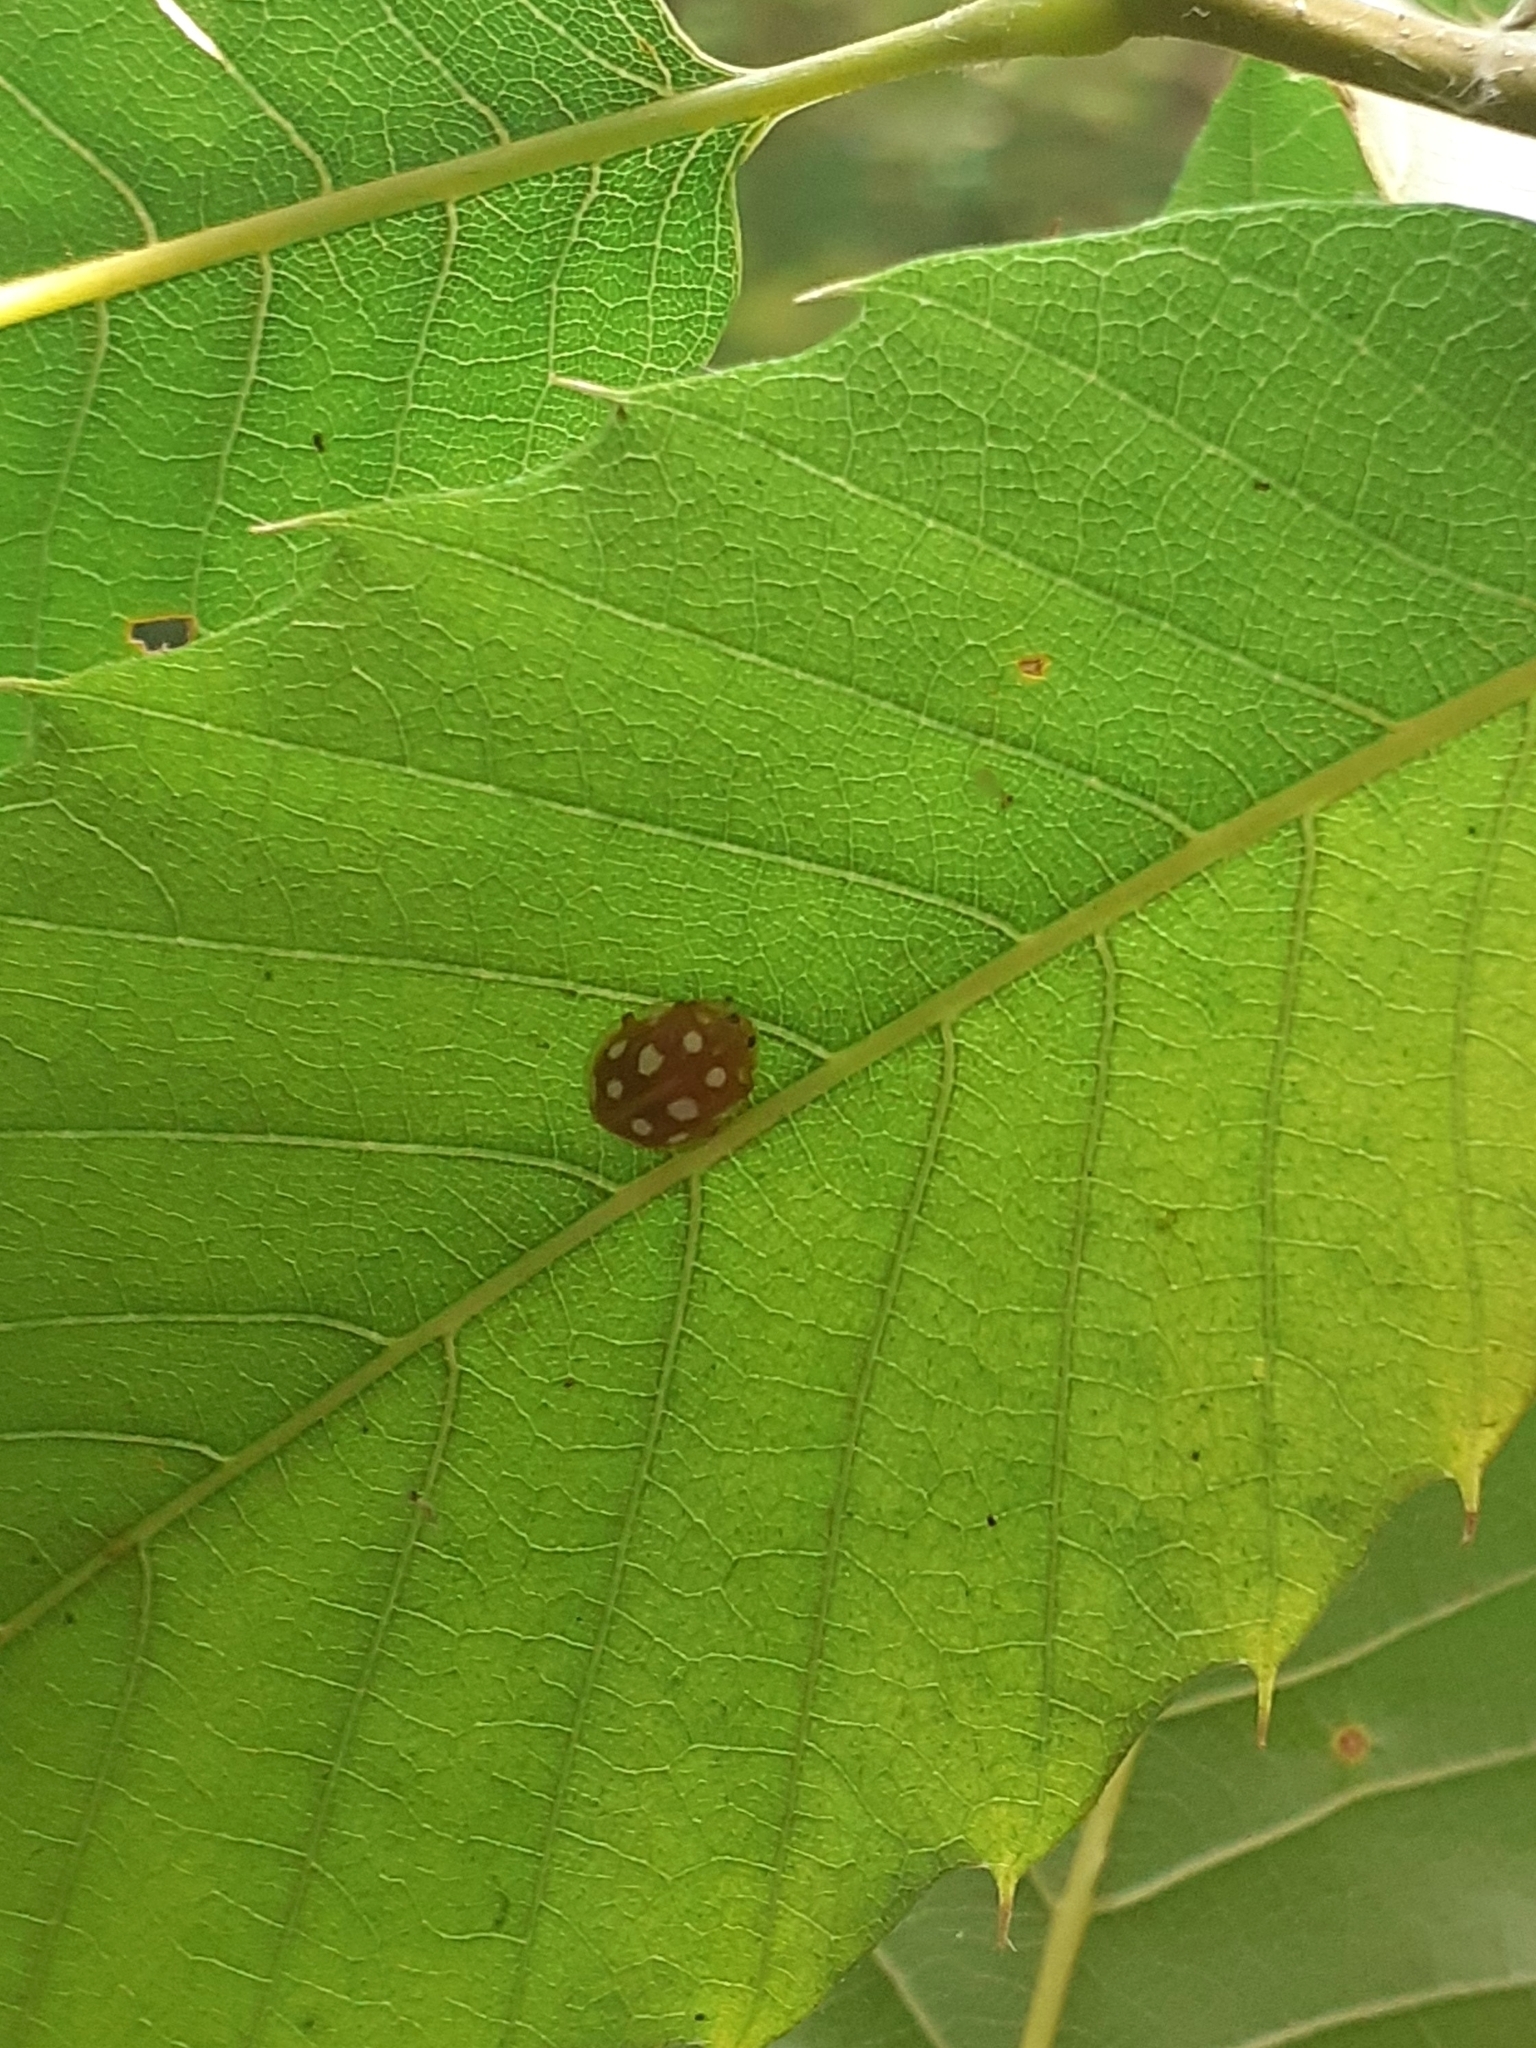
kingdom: Animalia
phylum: Arthropoda
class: Insecta
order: Coleoptera
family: Coccinellidae
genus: Halyzia
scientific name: Halyzia sedecimguttata
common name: Orange ladybird
